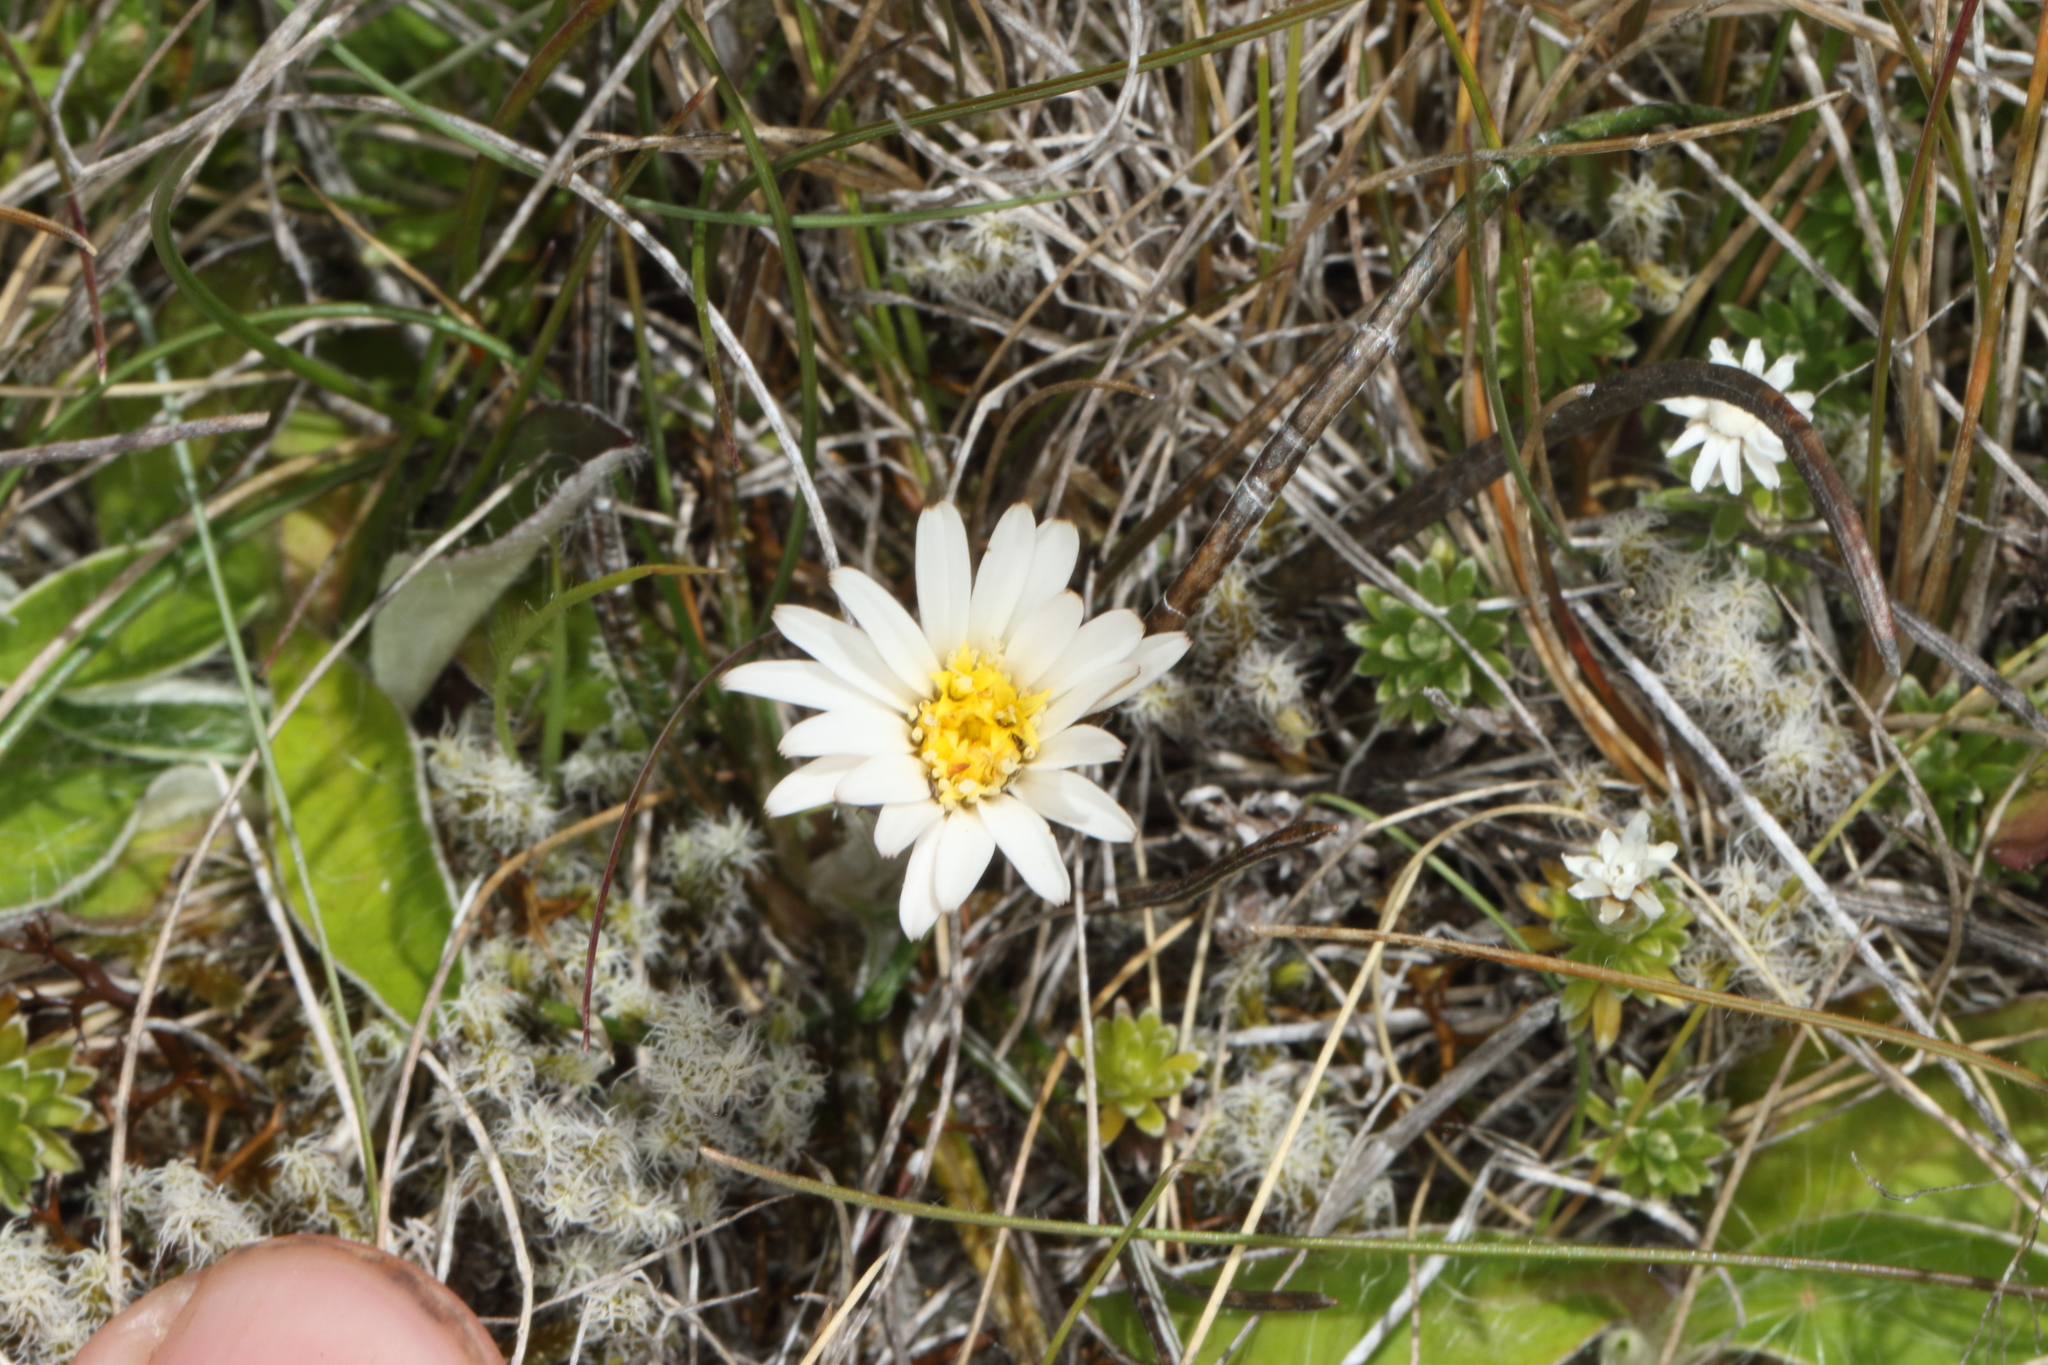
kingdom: Plantae
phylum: Tracheophyta
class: Magnoliopsida
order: Asterales
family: Asteraceae
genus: Celmisia
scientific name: Celmisia gracilenta
